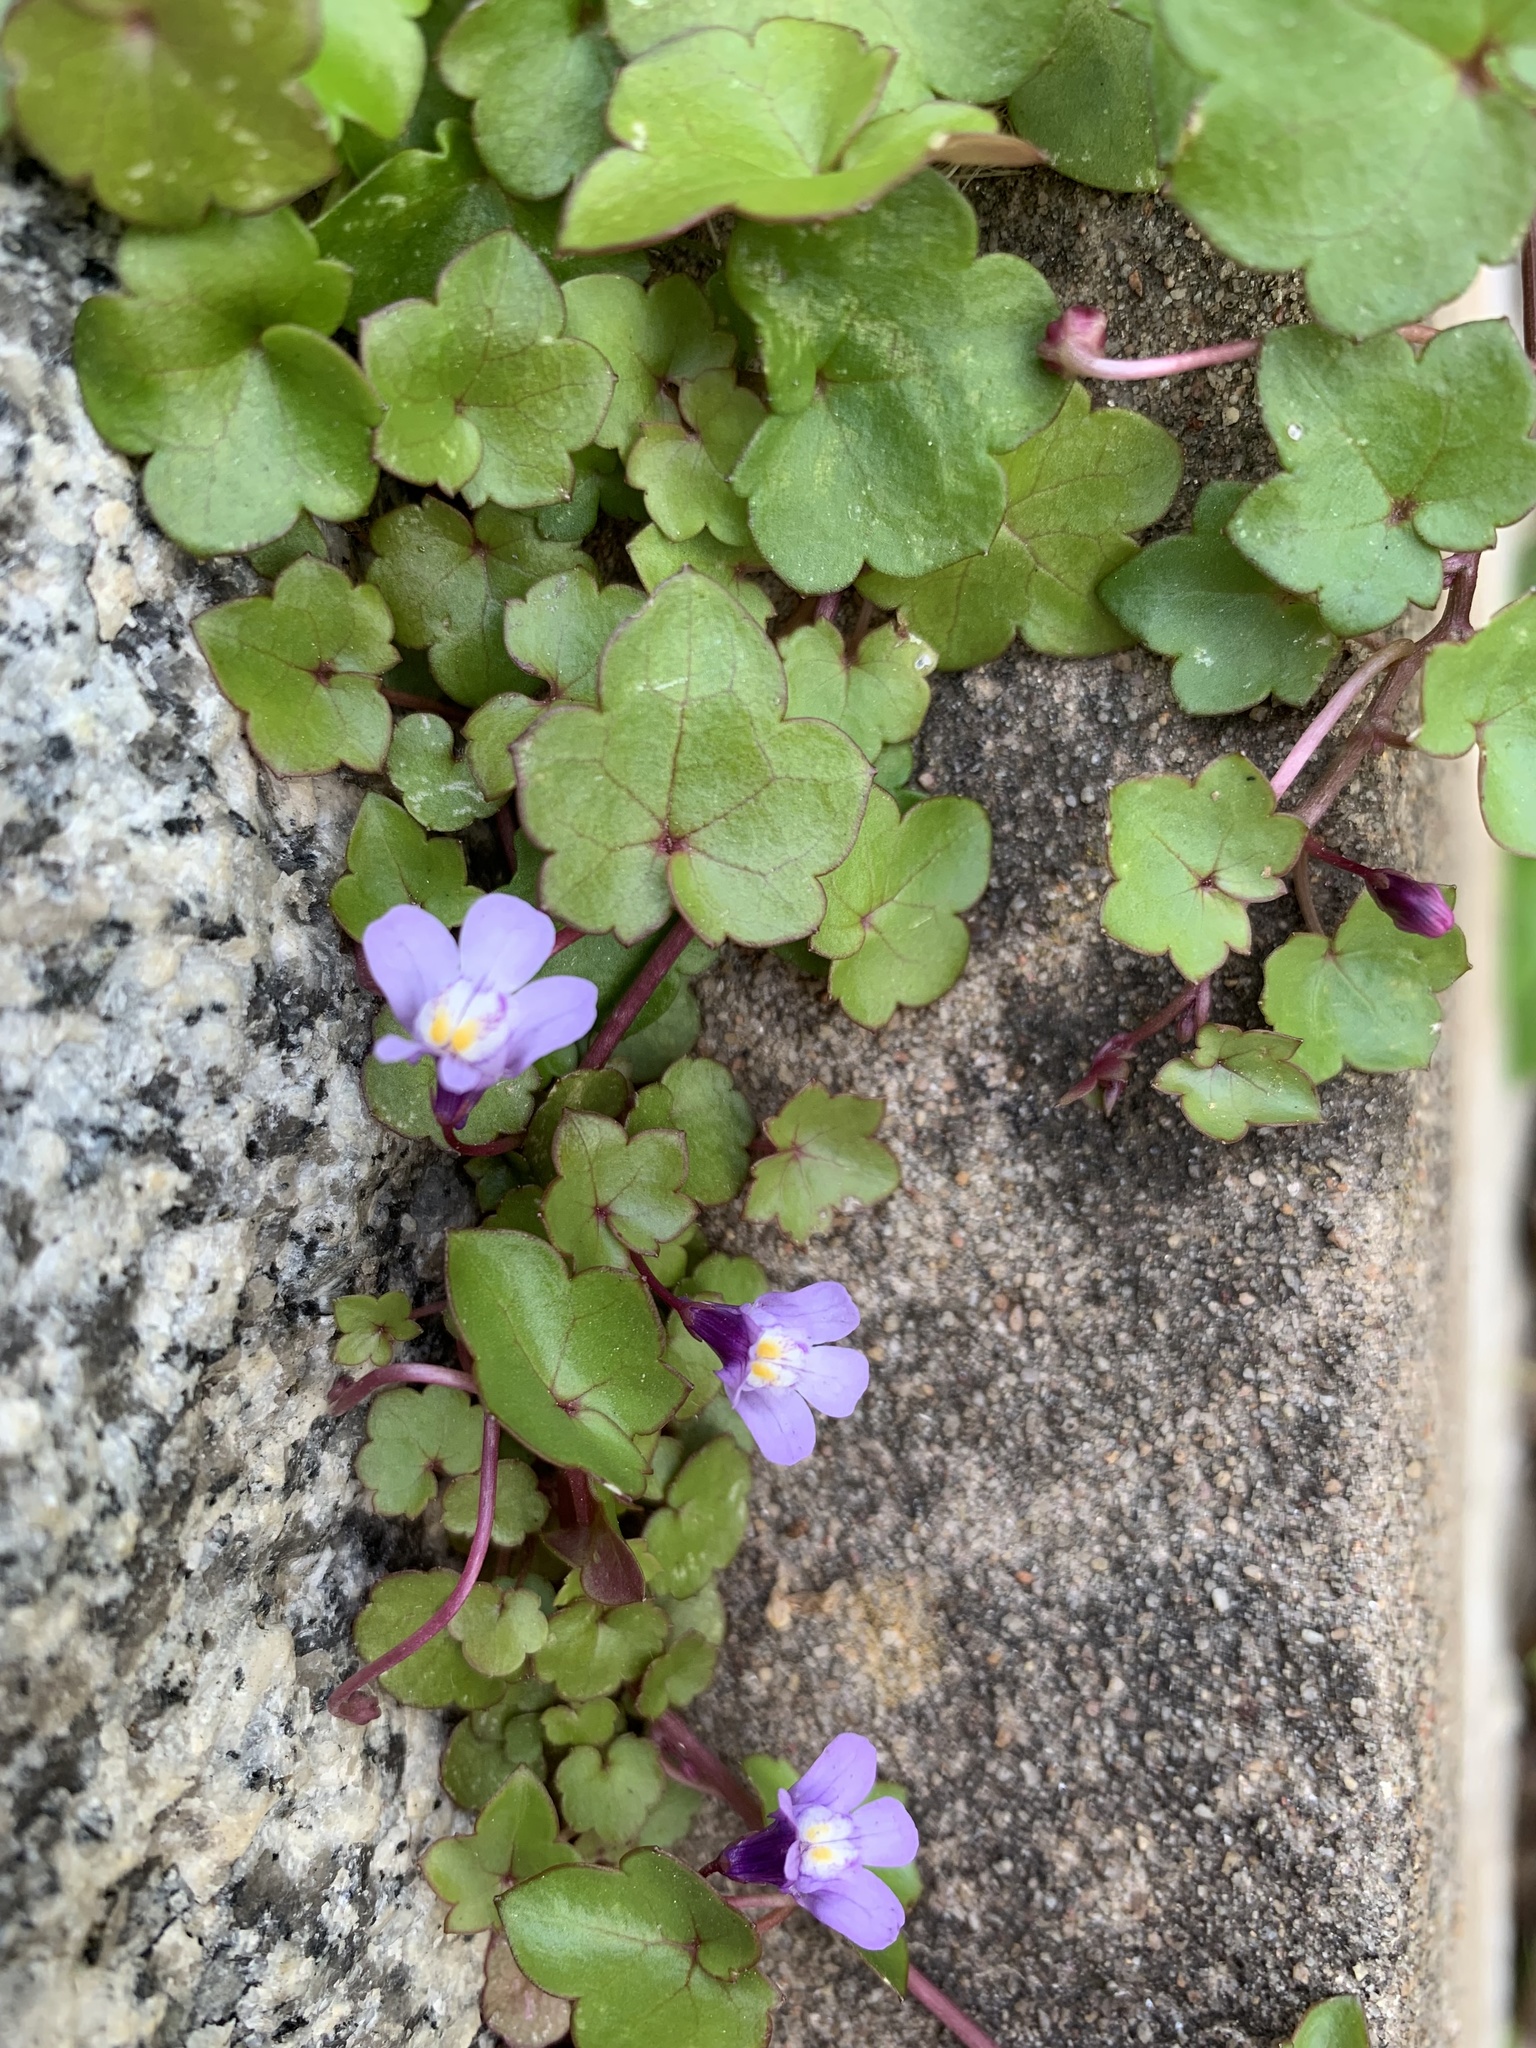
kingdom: Plantae
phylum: Tracheophyta
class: Magnoliopsida
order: Lamiales
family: Plantaginaceae
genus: Cymbalaria
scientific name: Cymbalaria muralis
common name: Ivy-leaved toadflax
